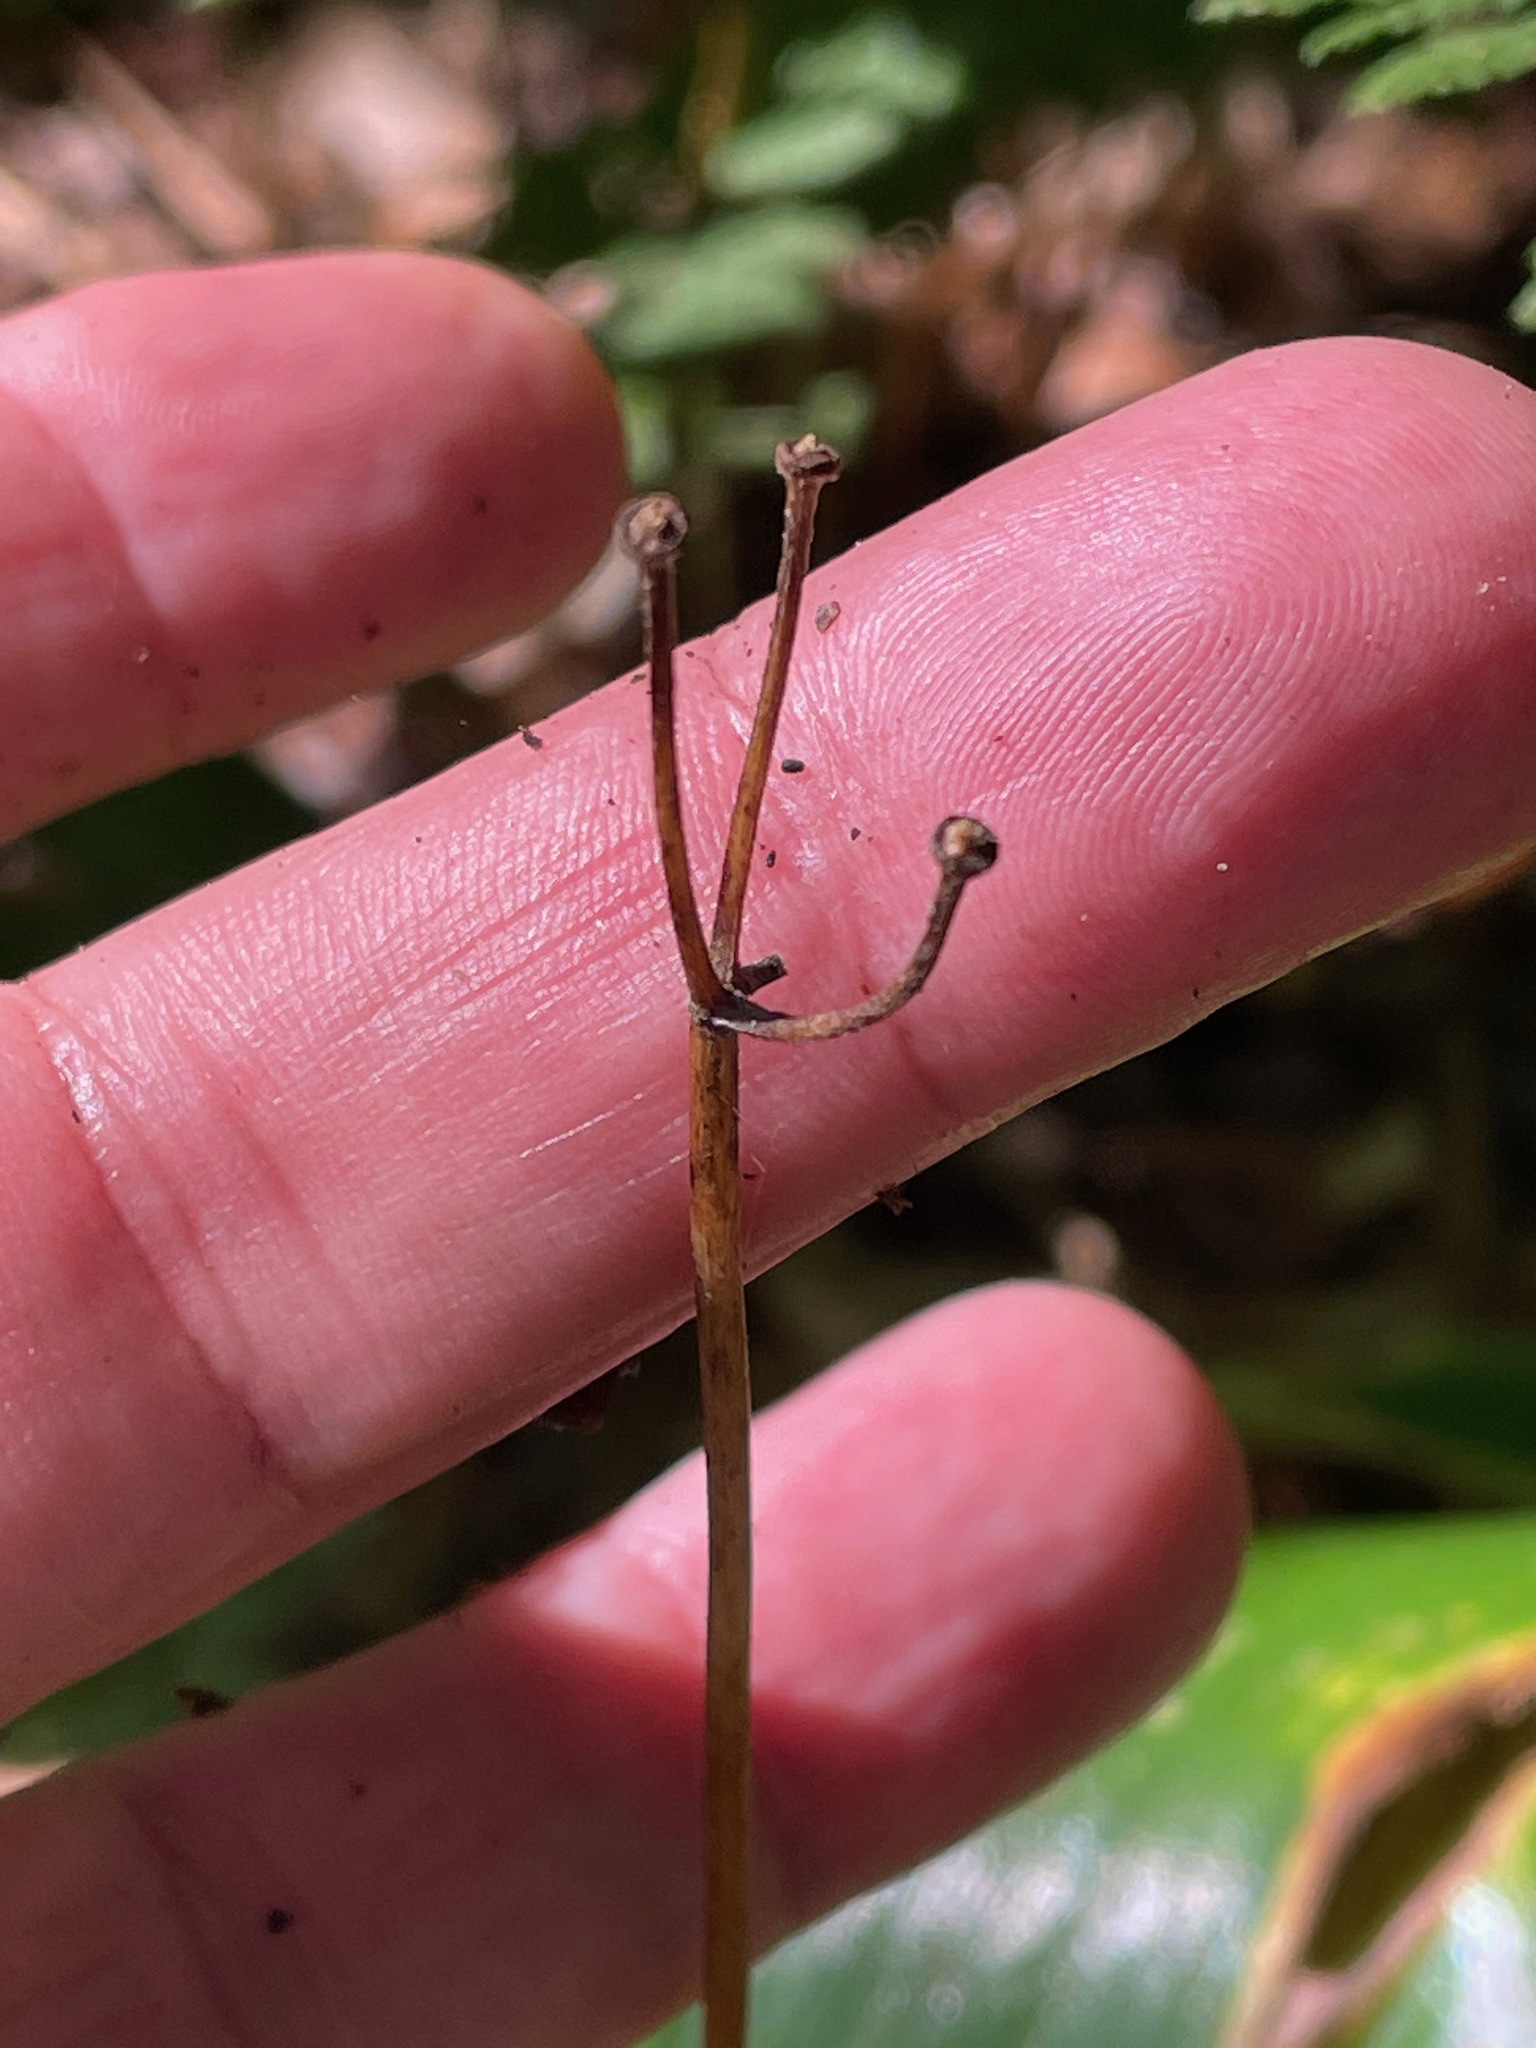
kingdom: Plantae
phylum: Tracheophyta
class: Liliopsida
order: Liliales
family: Liliaceae
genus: Clintonia
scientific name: Clintonia borealis
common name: Yellow clintonia
